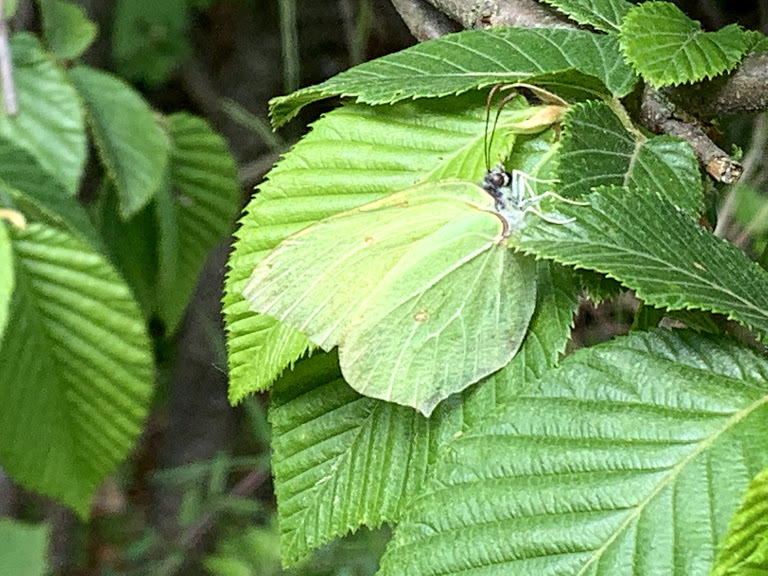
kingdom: Animalia
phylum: Arthropoda
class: Insecta
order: Lepidoptera
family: Pieridae
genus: Gonepteryx
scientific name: Gonepteryx rhamni
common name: Brimstone
